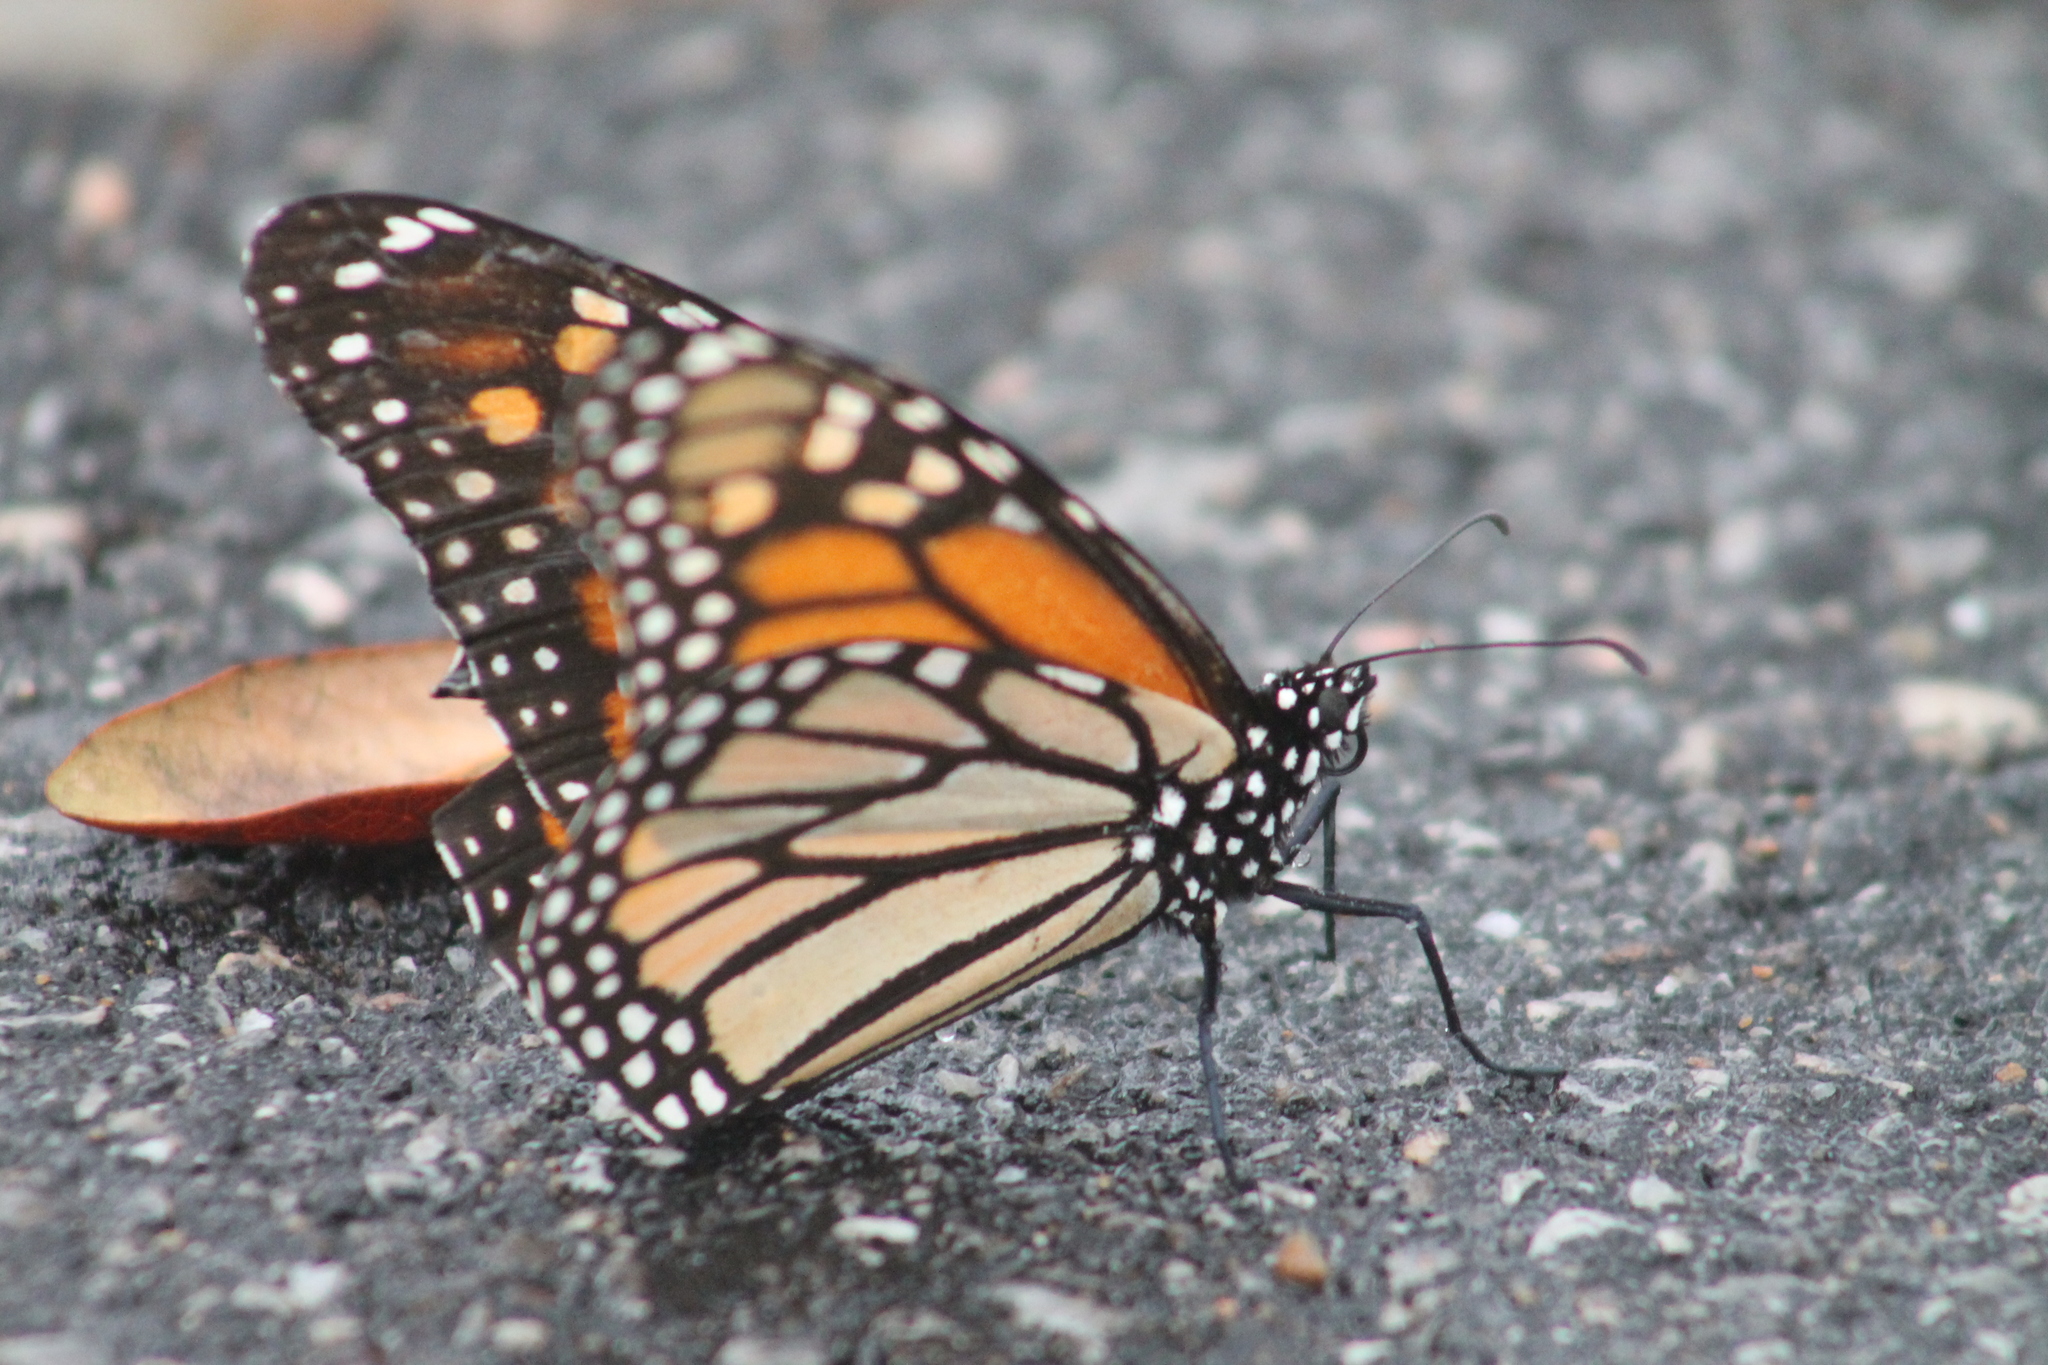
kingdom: Animalia
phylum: Arthropoda
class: Insecta
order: Lepidoptera
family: Nymphalidae
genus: Danaus
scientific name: Danaus plexippus
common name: Monarch
